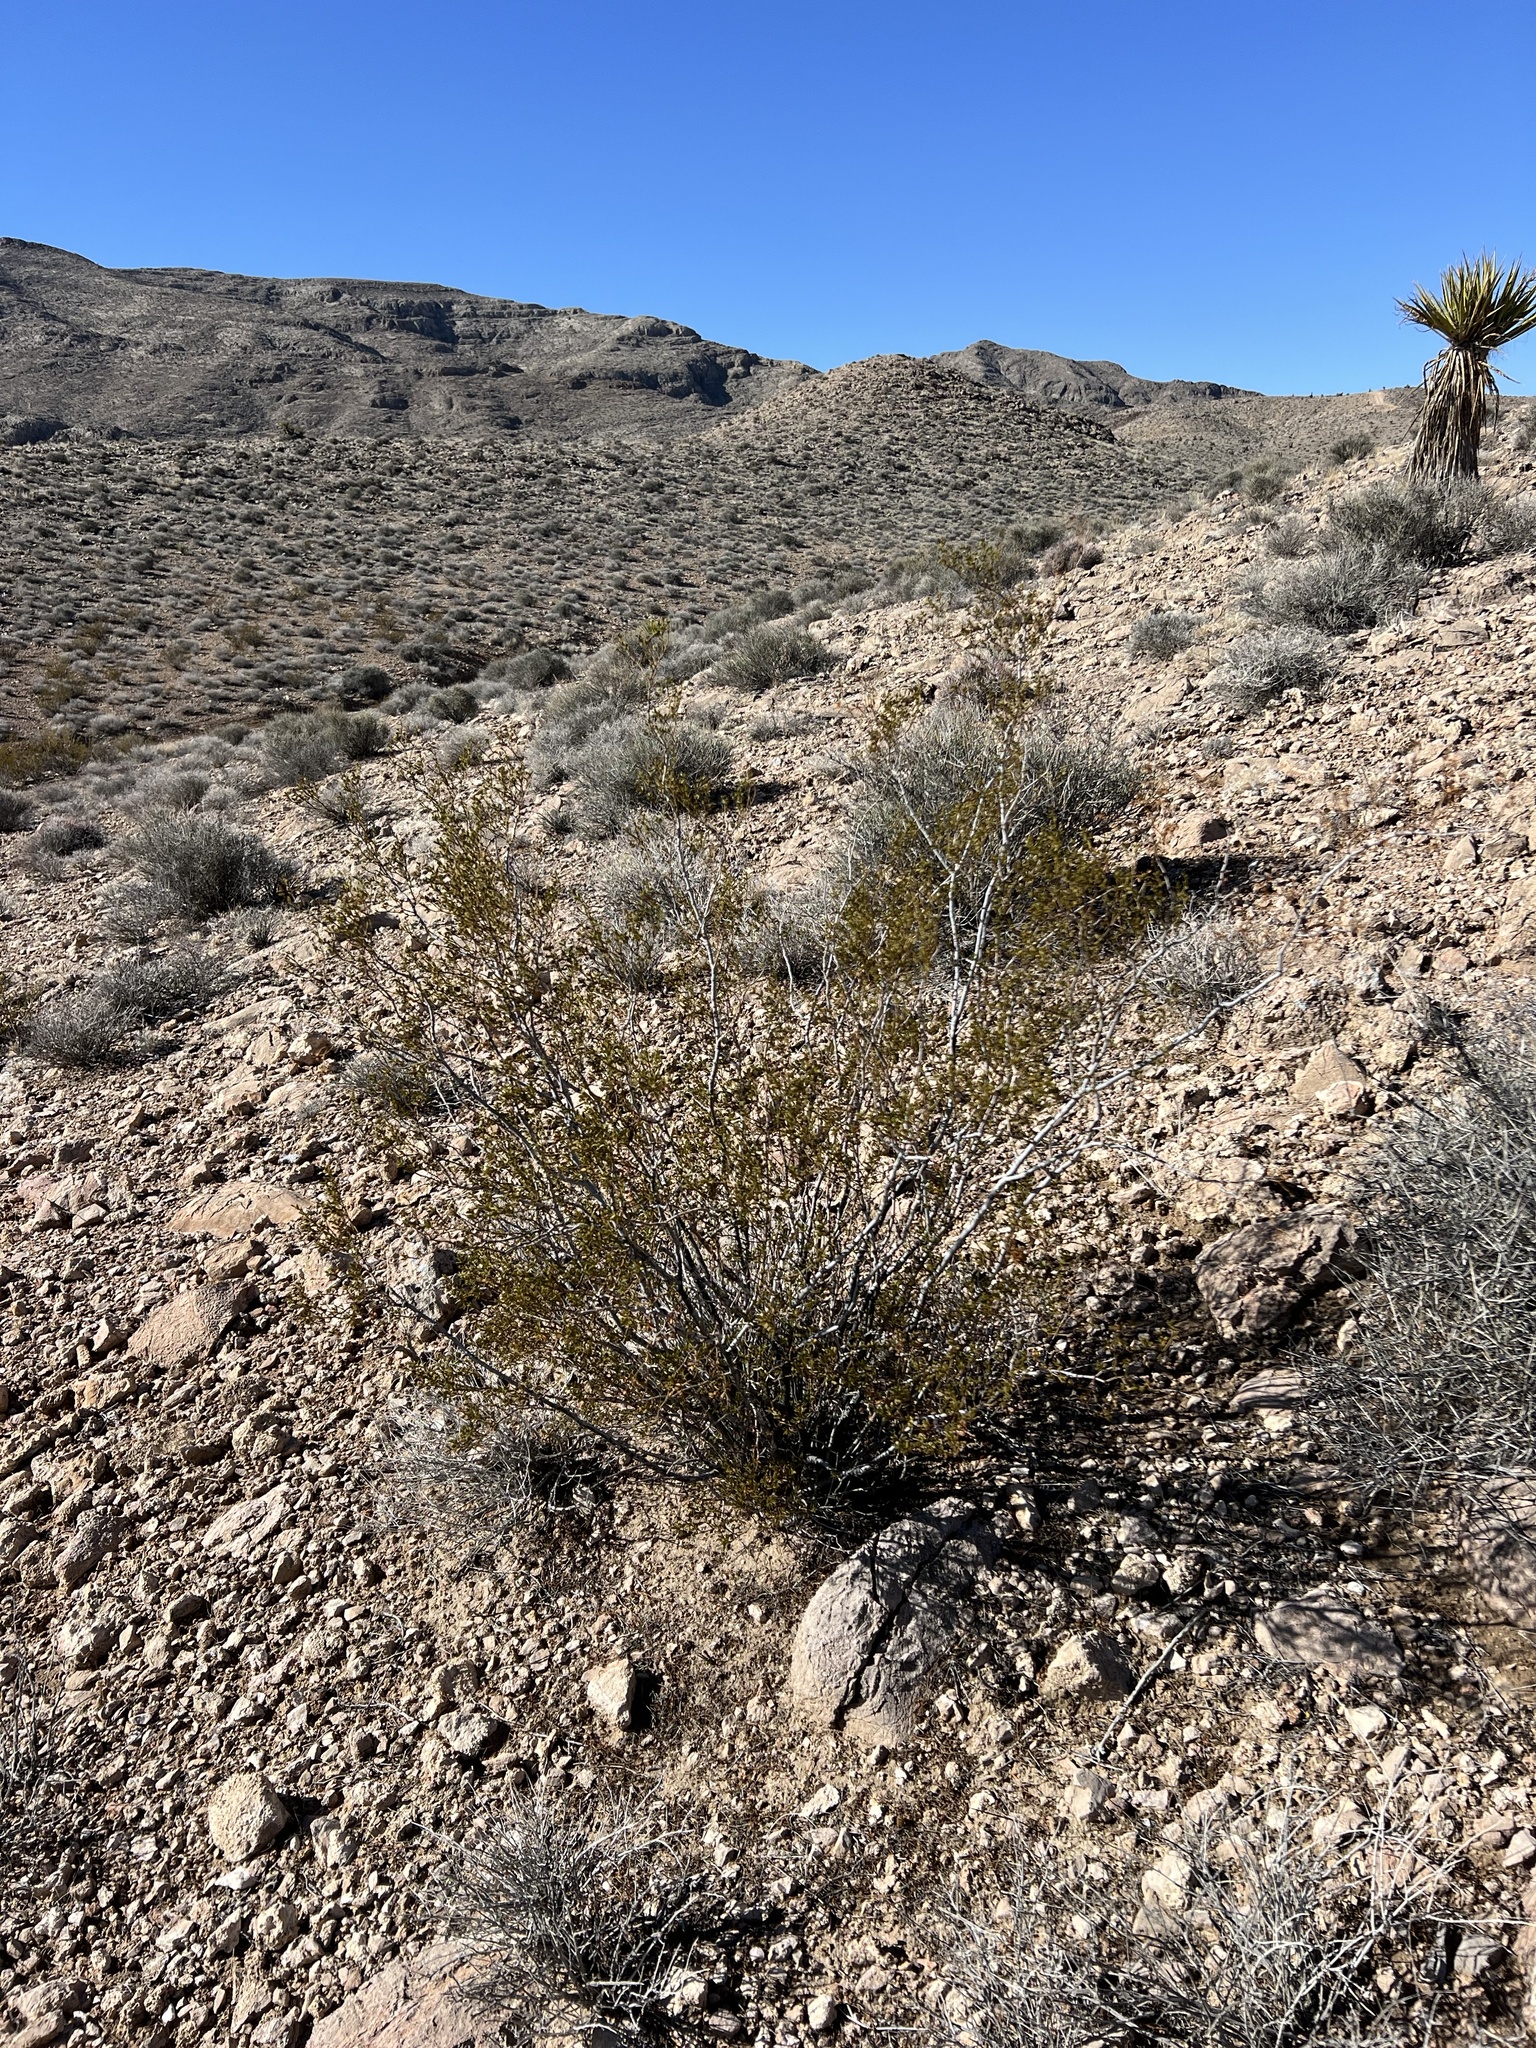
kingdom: Plantae
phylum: Tracheophyta
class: Magnoliopsida
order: Zygophyllales
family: Zygophyllaceae
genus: Larrea
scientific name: Larrea tridentata
